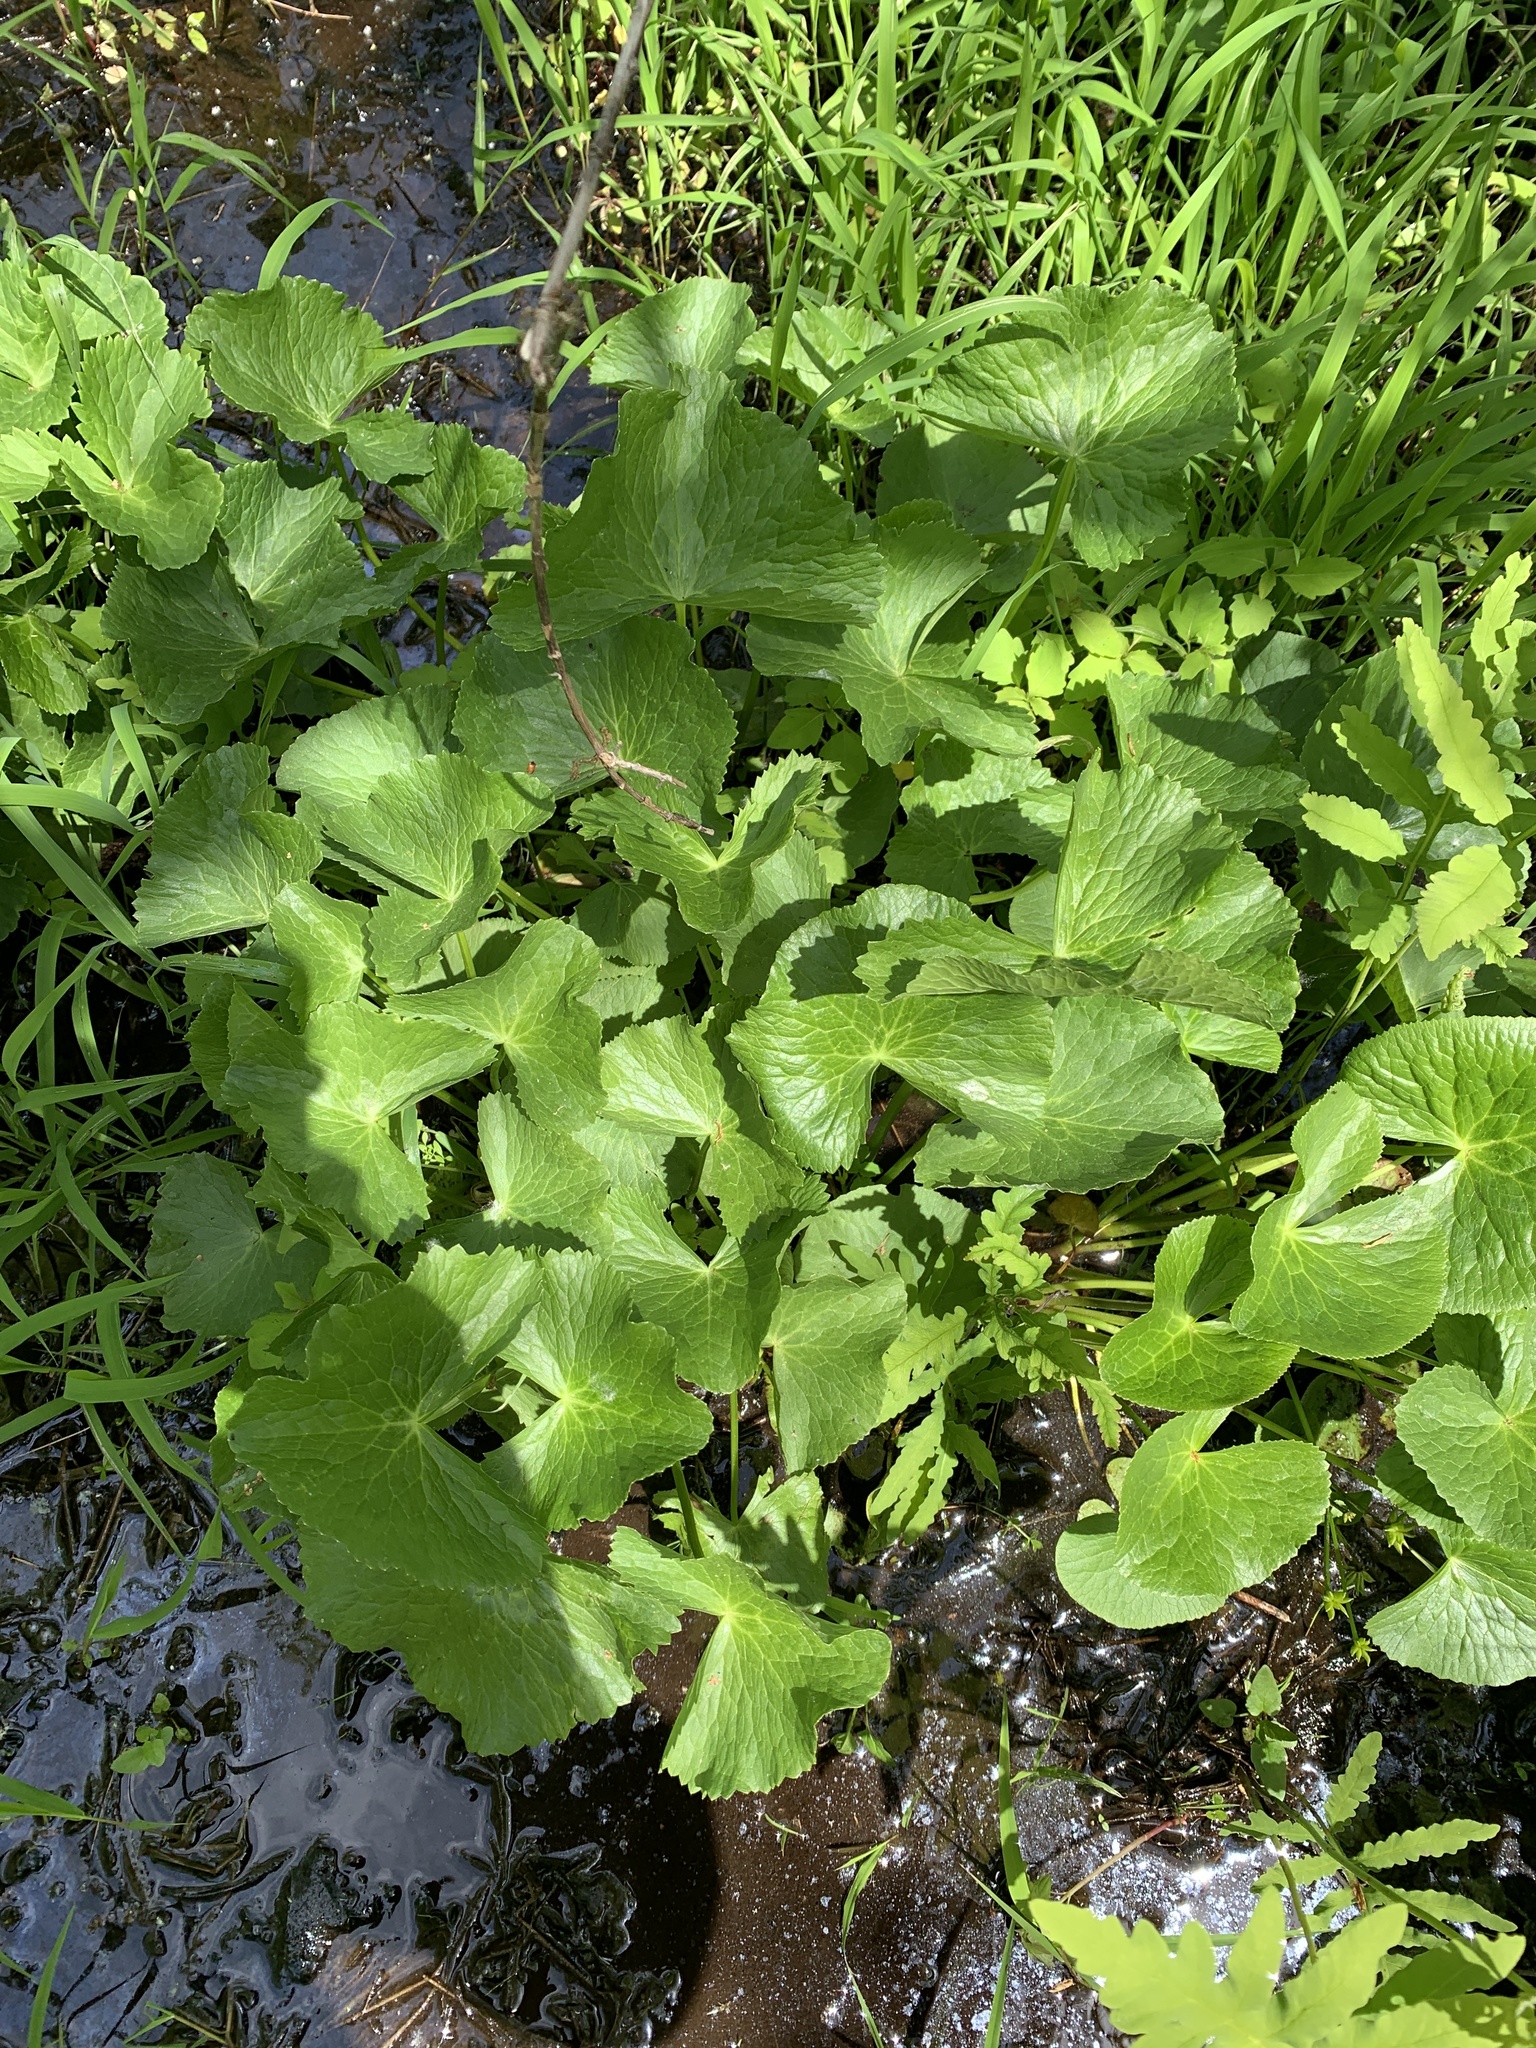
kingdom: Plantae
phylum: Tracheophyta
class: Magnoliopsida
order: Ranunculales
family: Ranunculaceae
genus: Caltha
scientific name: Caltha palustris
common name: Marsh marigold
